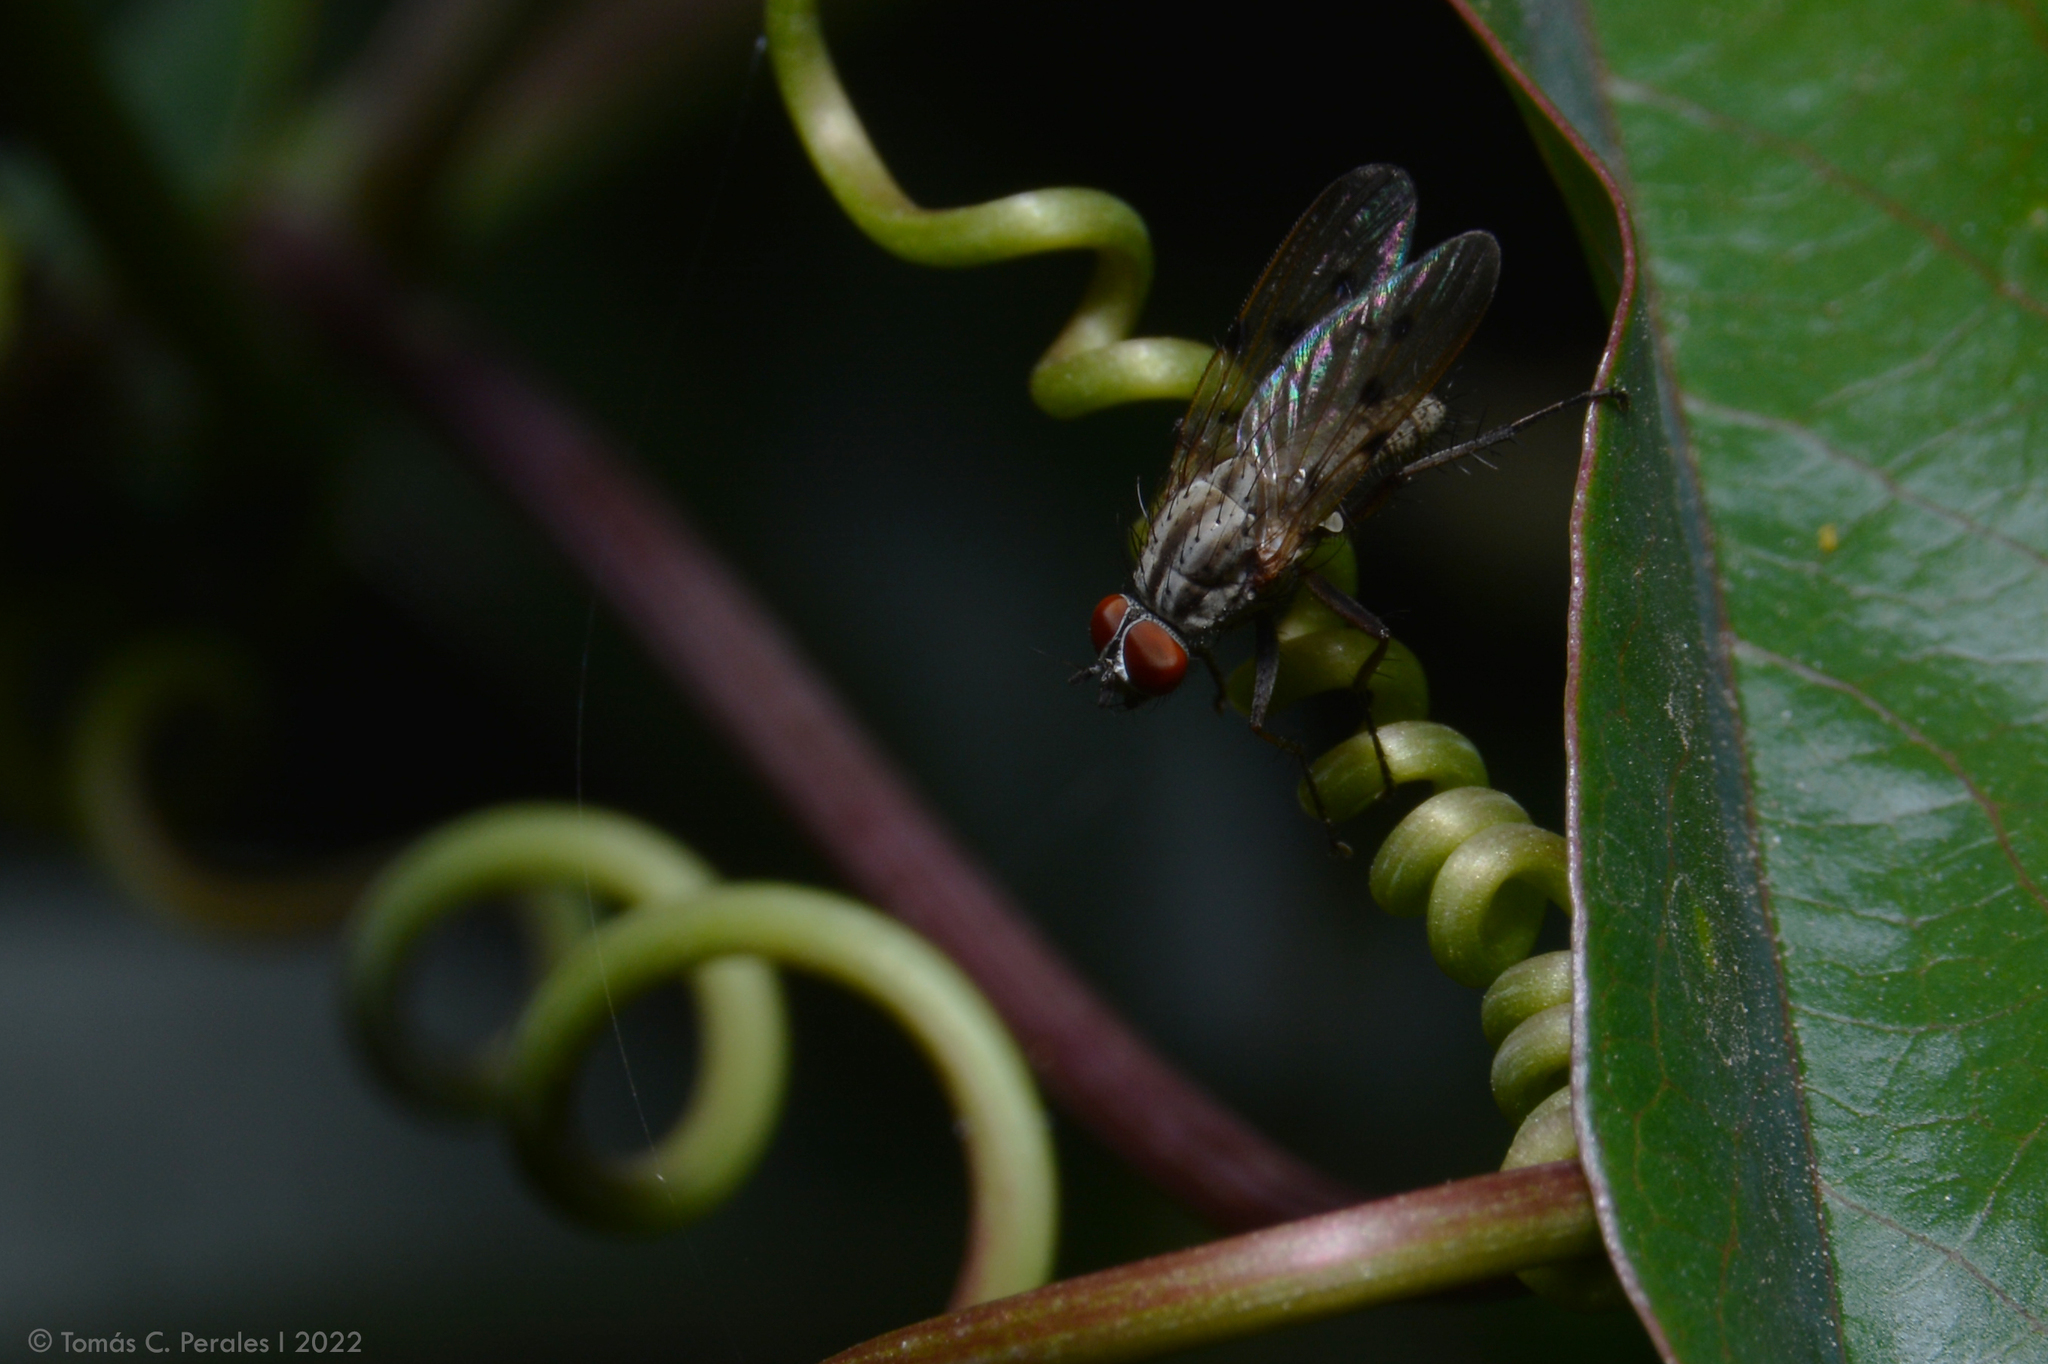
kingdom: Animalia
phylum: Arthropoda
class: Insecta
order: Diptera
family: Anthomyiidae
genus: Anthomyia
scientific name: Anthomyia punctipennis
